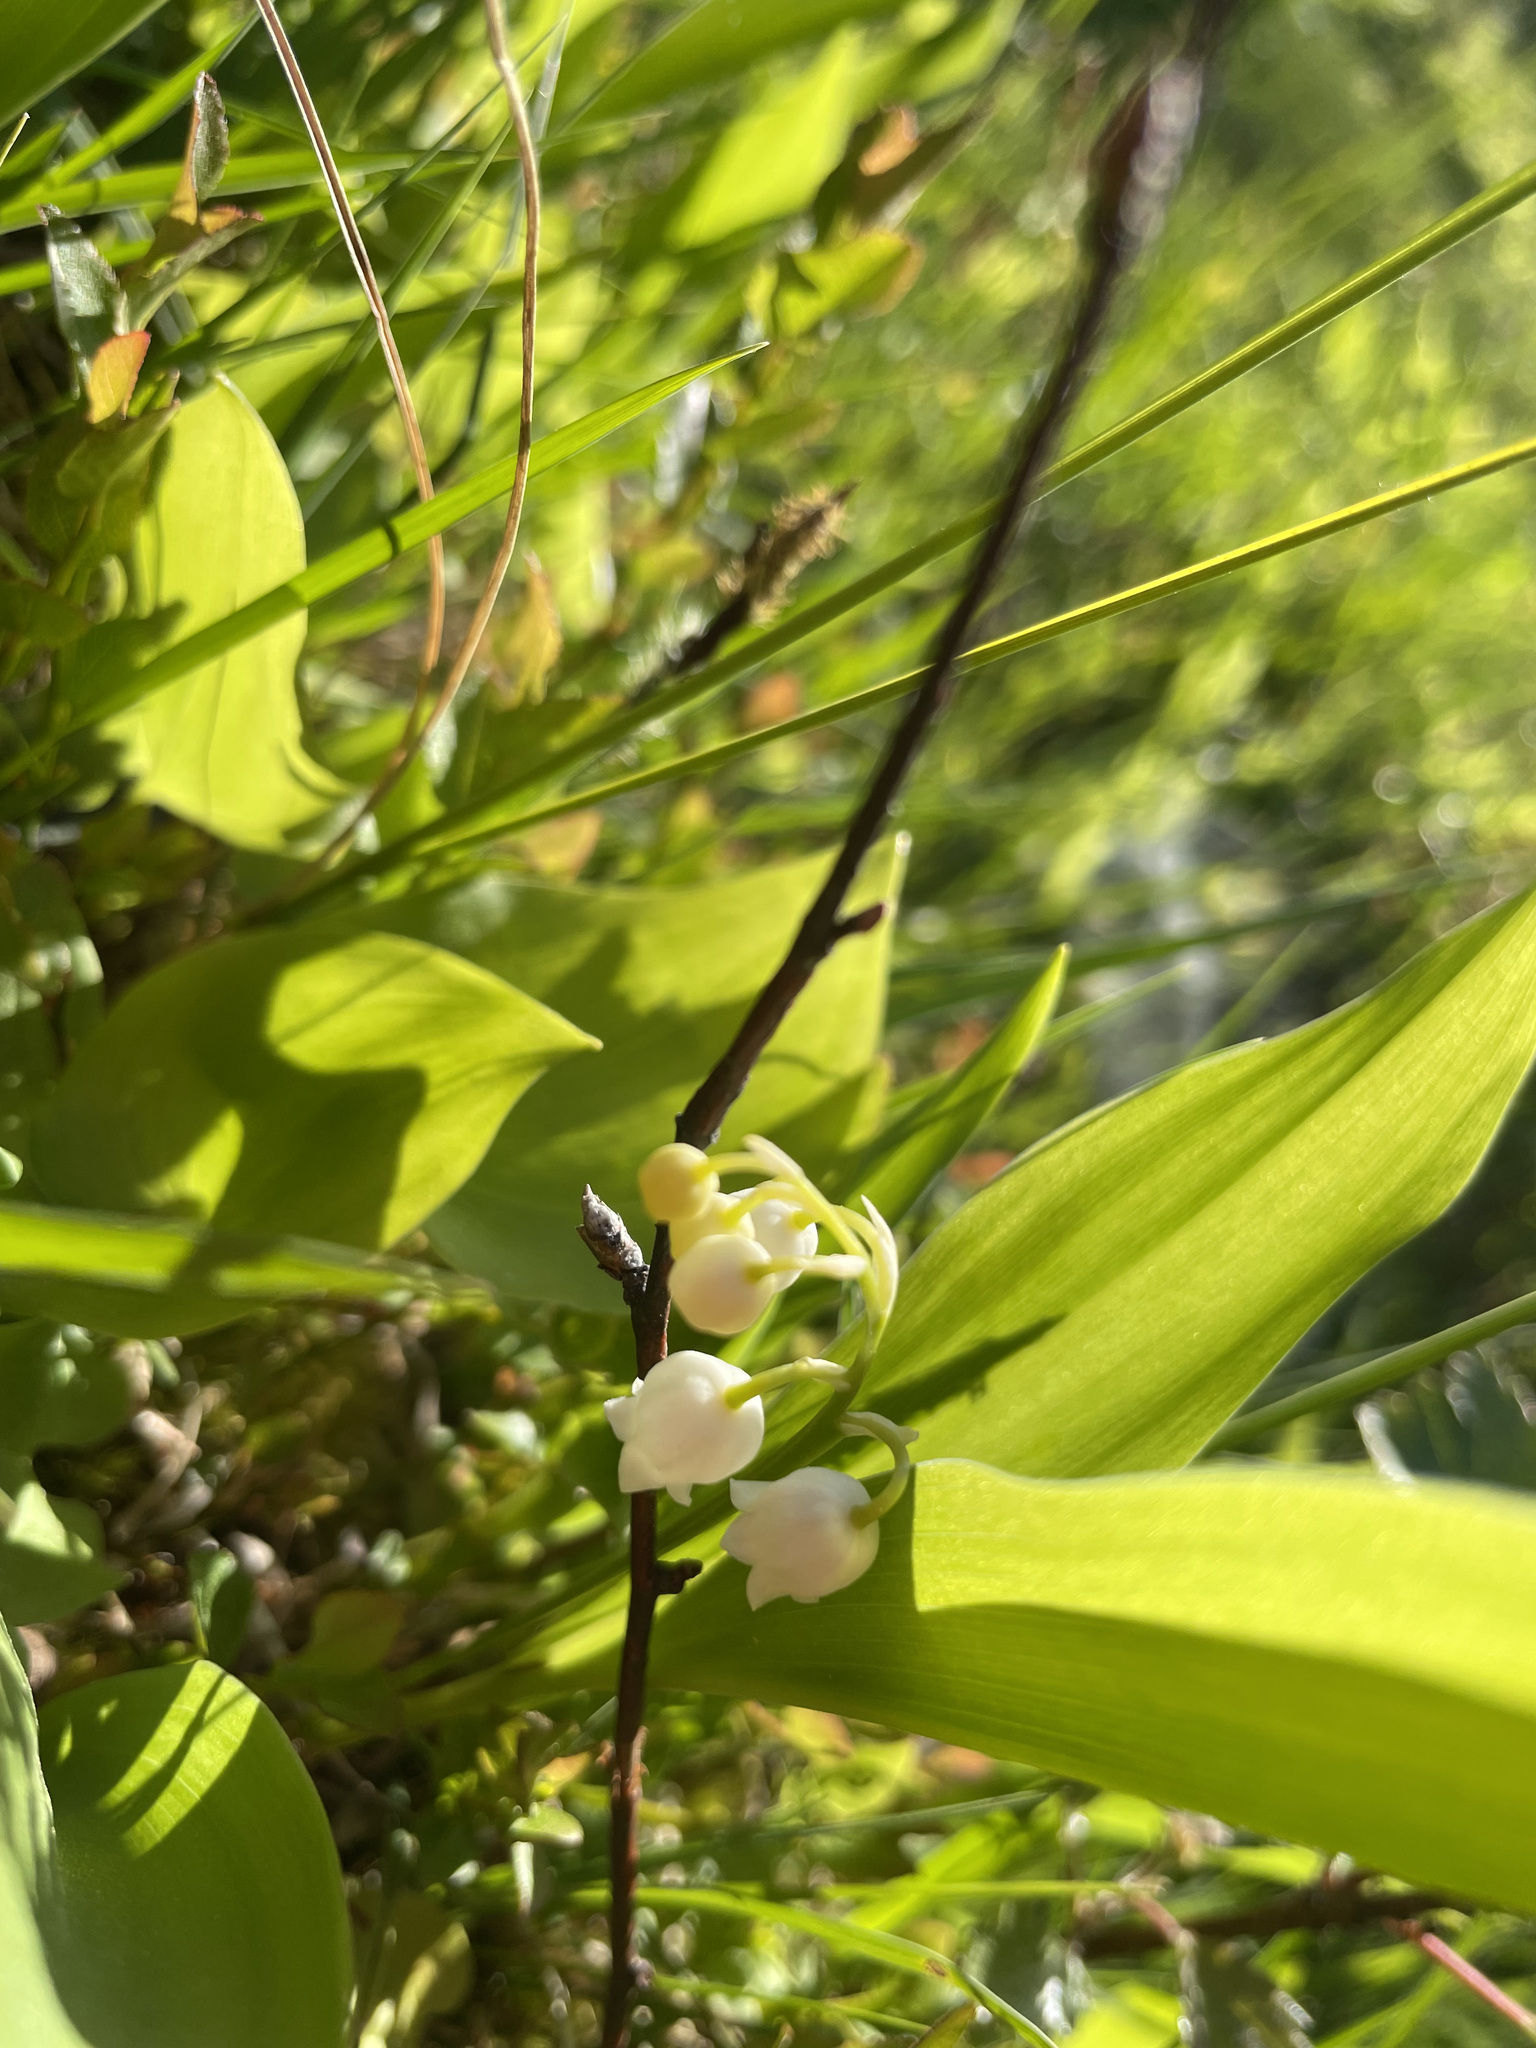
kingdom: Plantae
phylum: Tracheophyta
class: Liliopsida
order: Asparagales
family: Asparagaceae
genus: Convallaria
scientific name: Convallaria majalis
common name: Lily-of-the-valley
